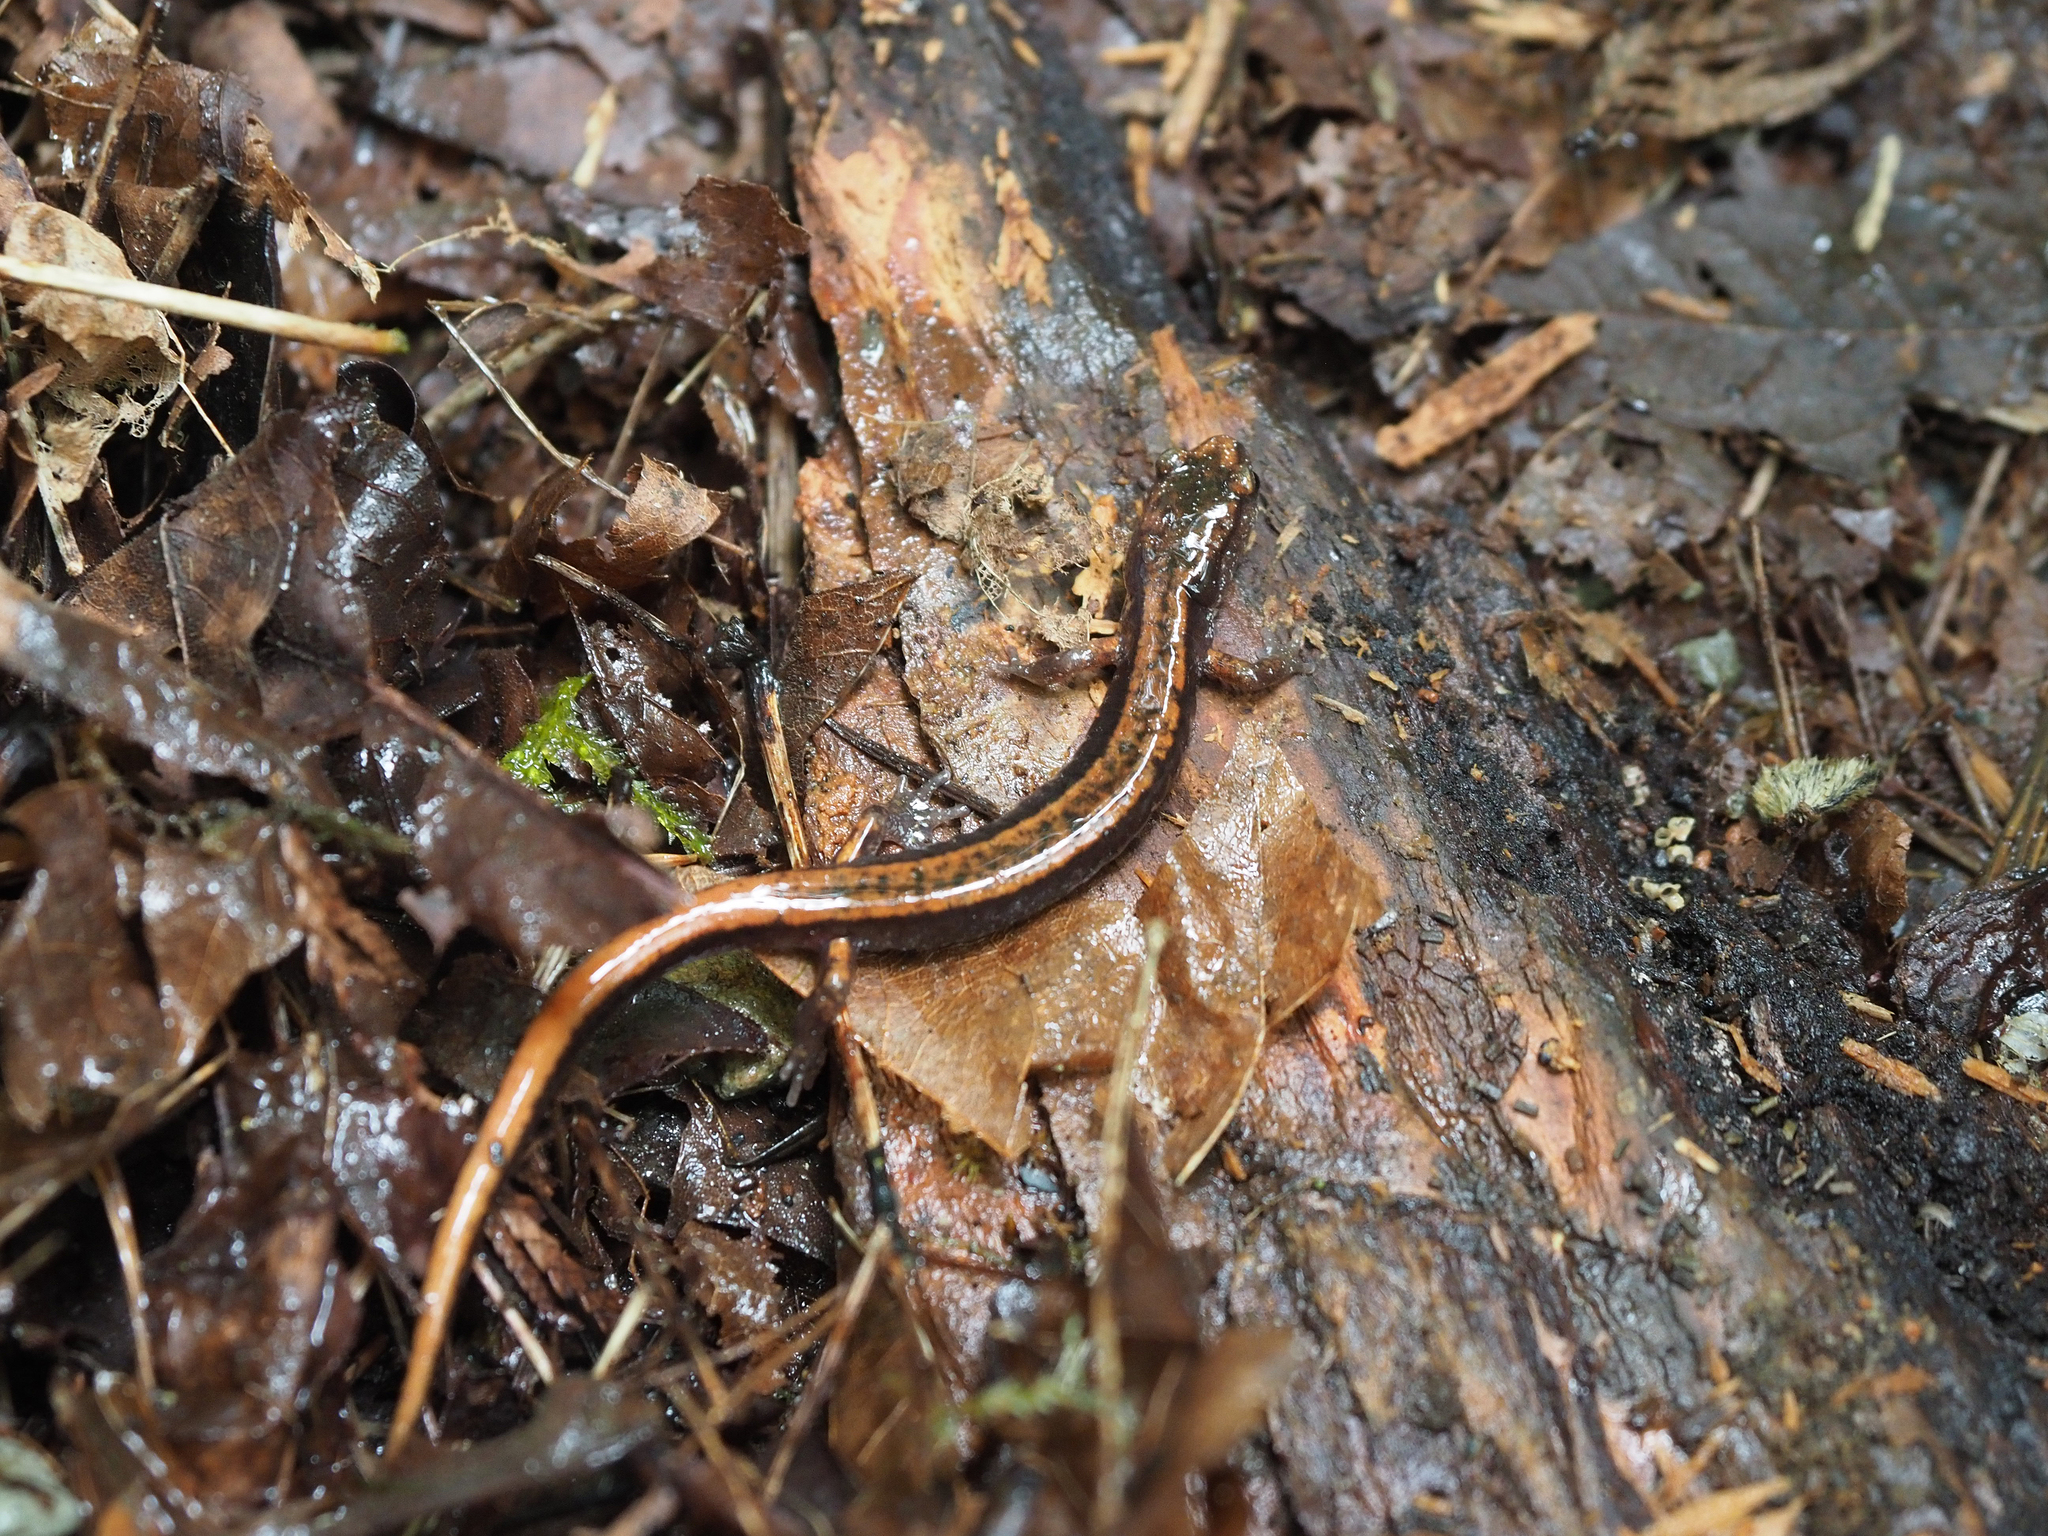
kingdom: Animalia
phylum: Chordata
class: Amphibia
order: Caudata
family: Plethodontidae
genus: Plethodon
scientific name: Plethodon vehiculum
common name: Western red-backed salamander
